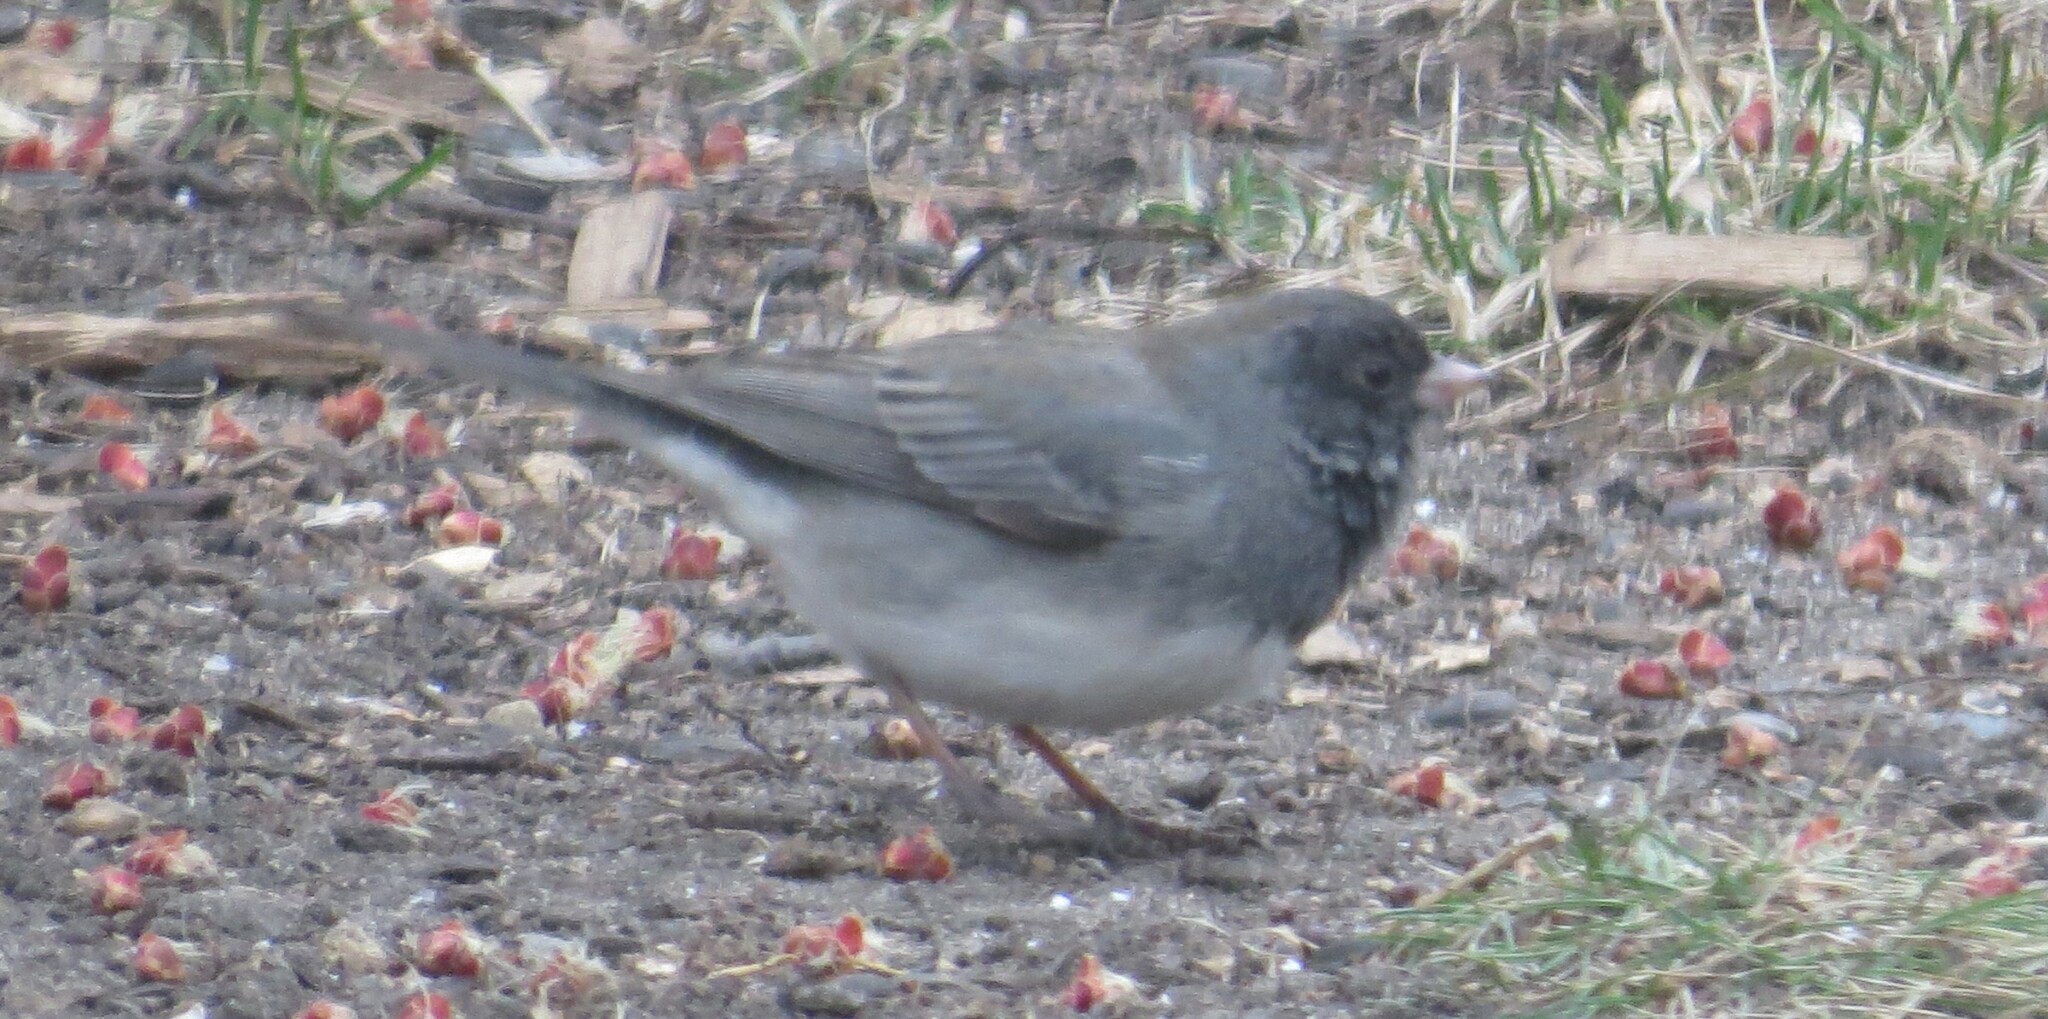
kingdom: Animalia
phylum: Chordata
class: Aves
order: Passeriformes
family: Passerellidae
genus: Junco
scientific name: Junco hyemalis
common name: Dark-eyed junco
